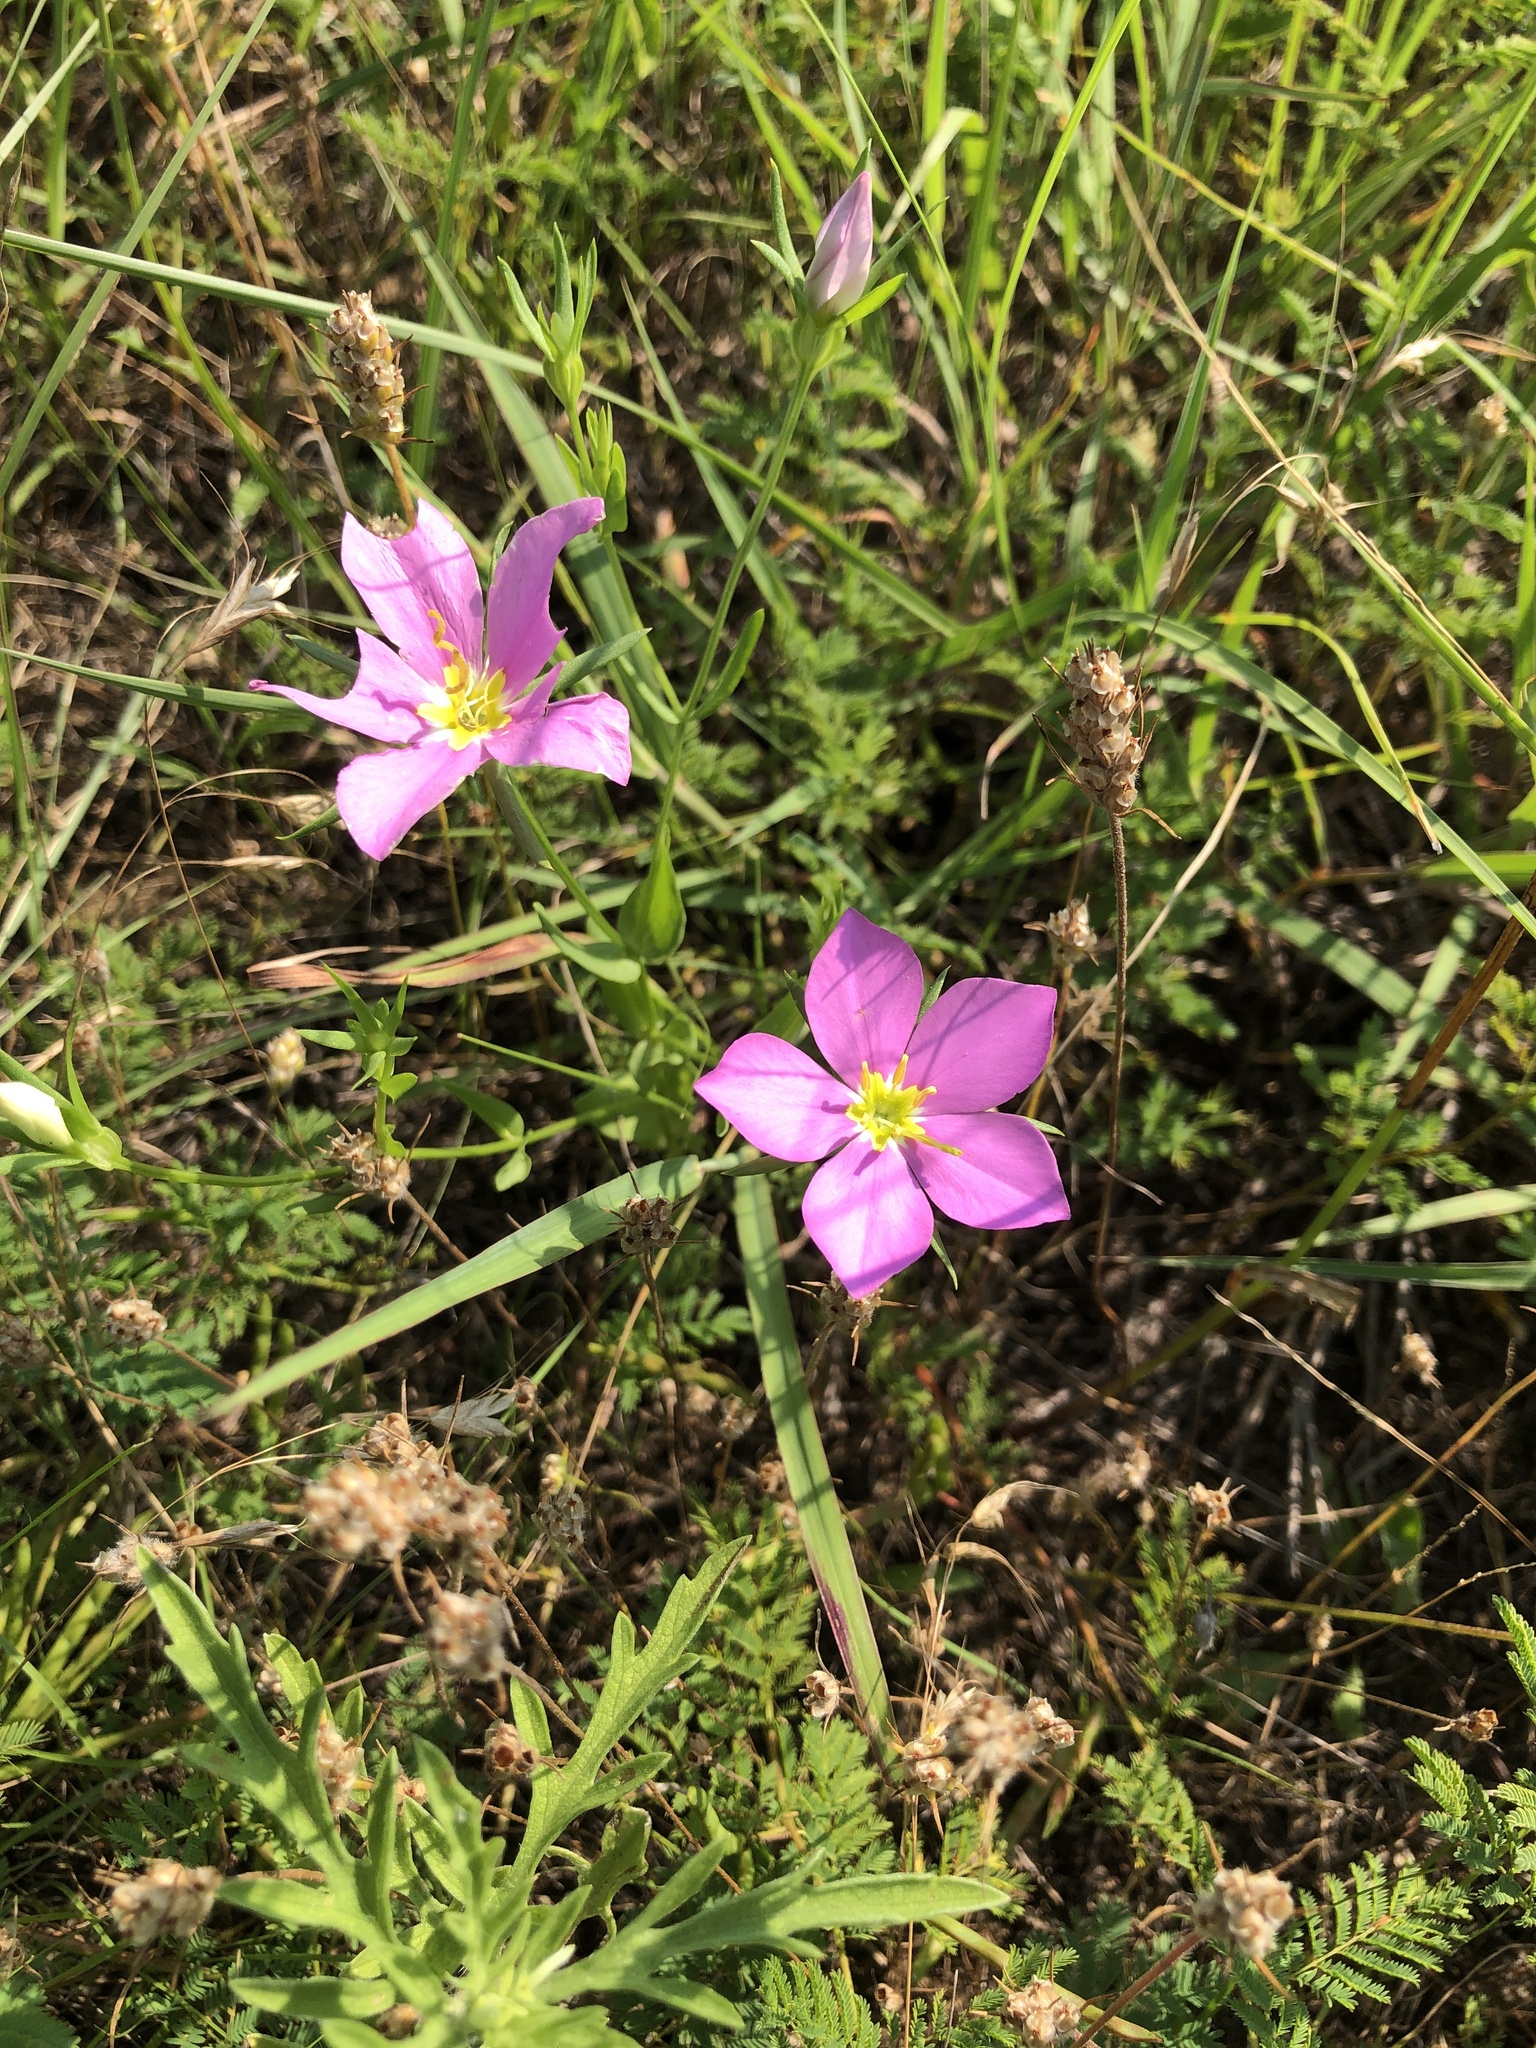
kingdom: Plantae
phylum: Tracheophyta
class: Magnoliopsida
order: Gentianales
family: Gentianaceae
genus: Sabatia
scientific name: Sabatia campestris
